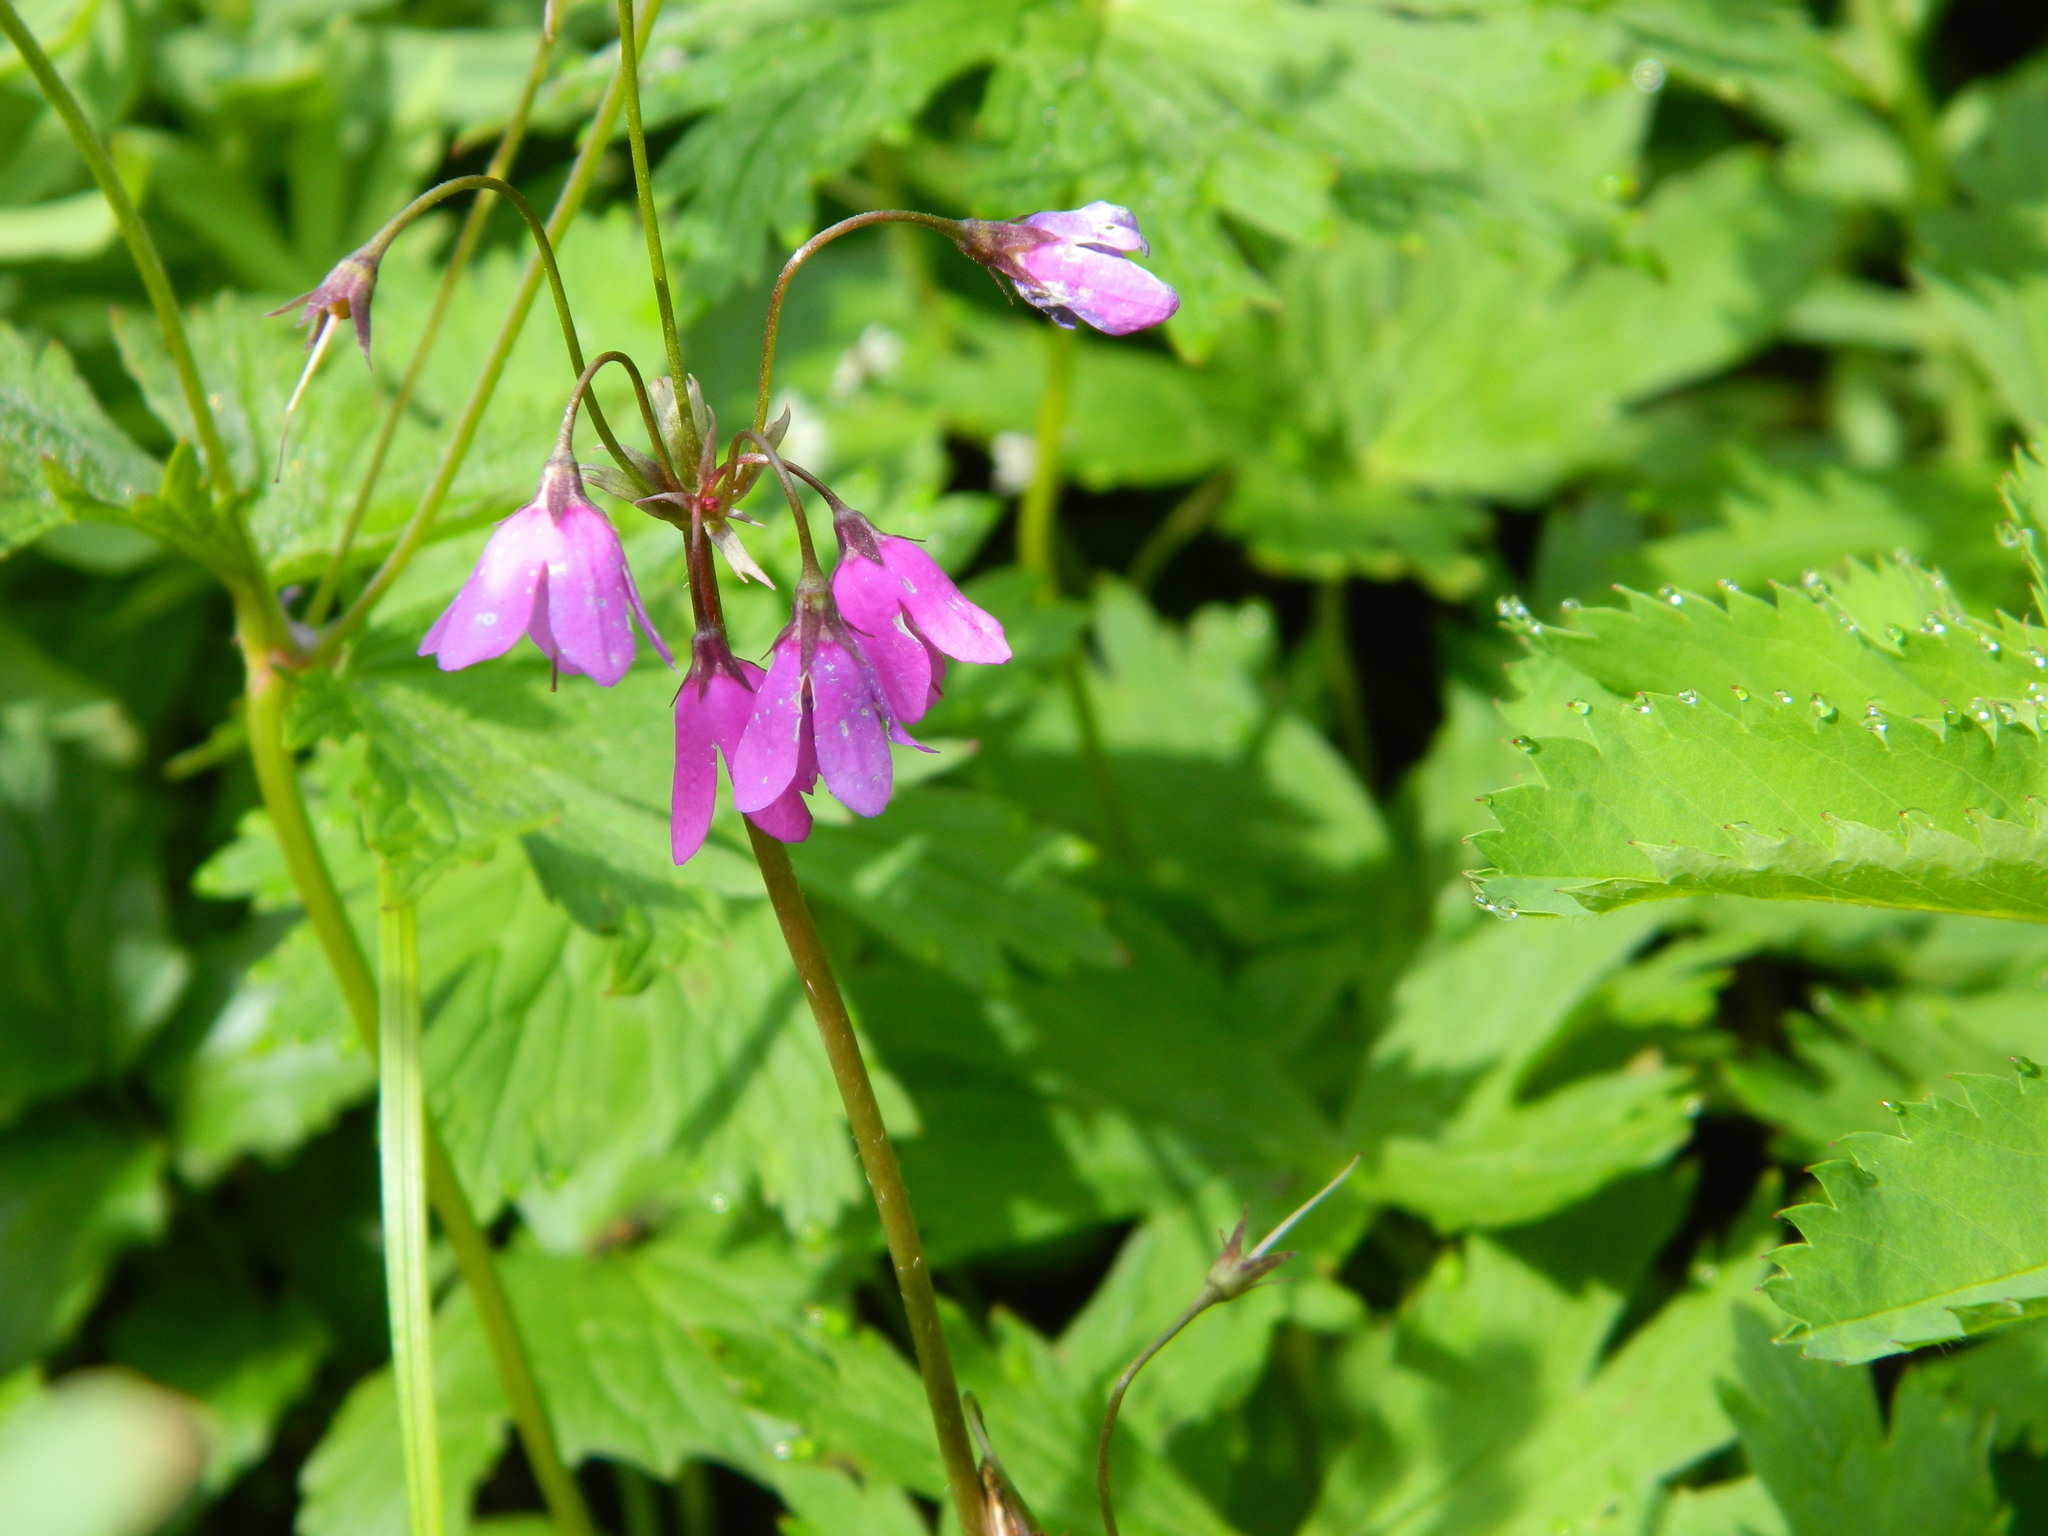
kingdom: Plantae
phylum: Tracheophyta
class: Magnoliopsida
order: Ericales
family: Primulaceae
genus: Primula
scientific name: Primula matthioli
